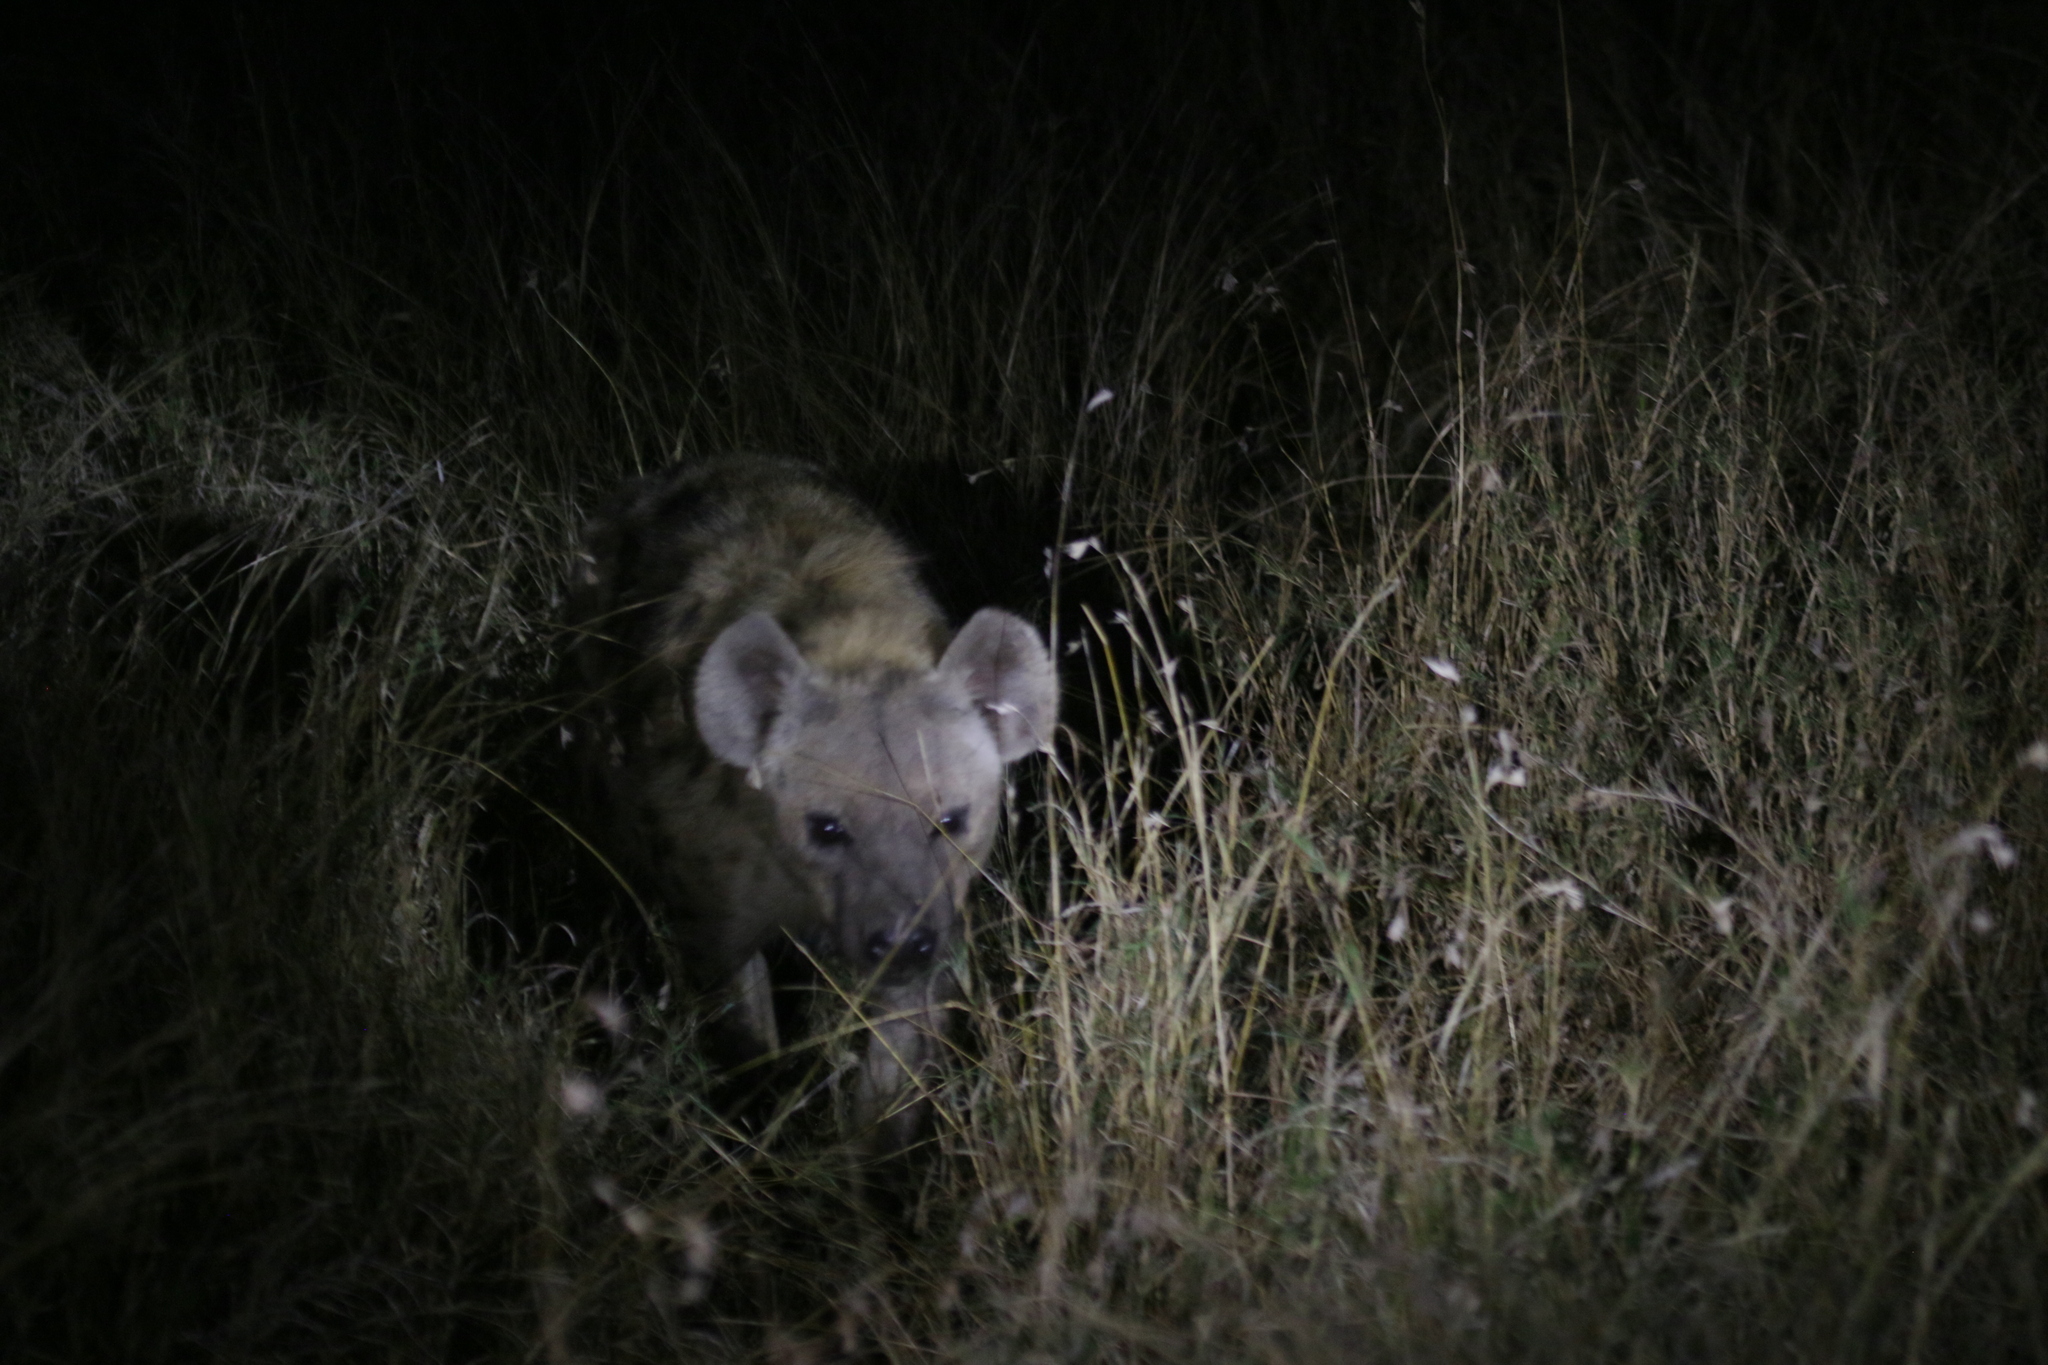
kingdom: Animalia
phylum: Chordata
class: Mammalia
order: Carnivora
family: Hyaenidae
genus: Crocuta
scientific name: Crocuta crocuta
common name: Spotted hyaena
